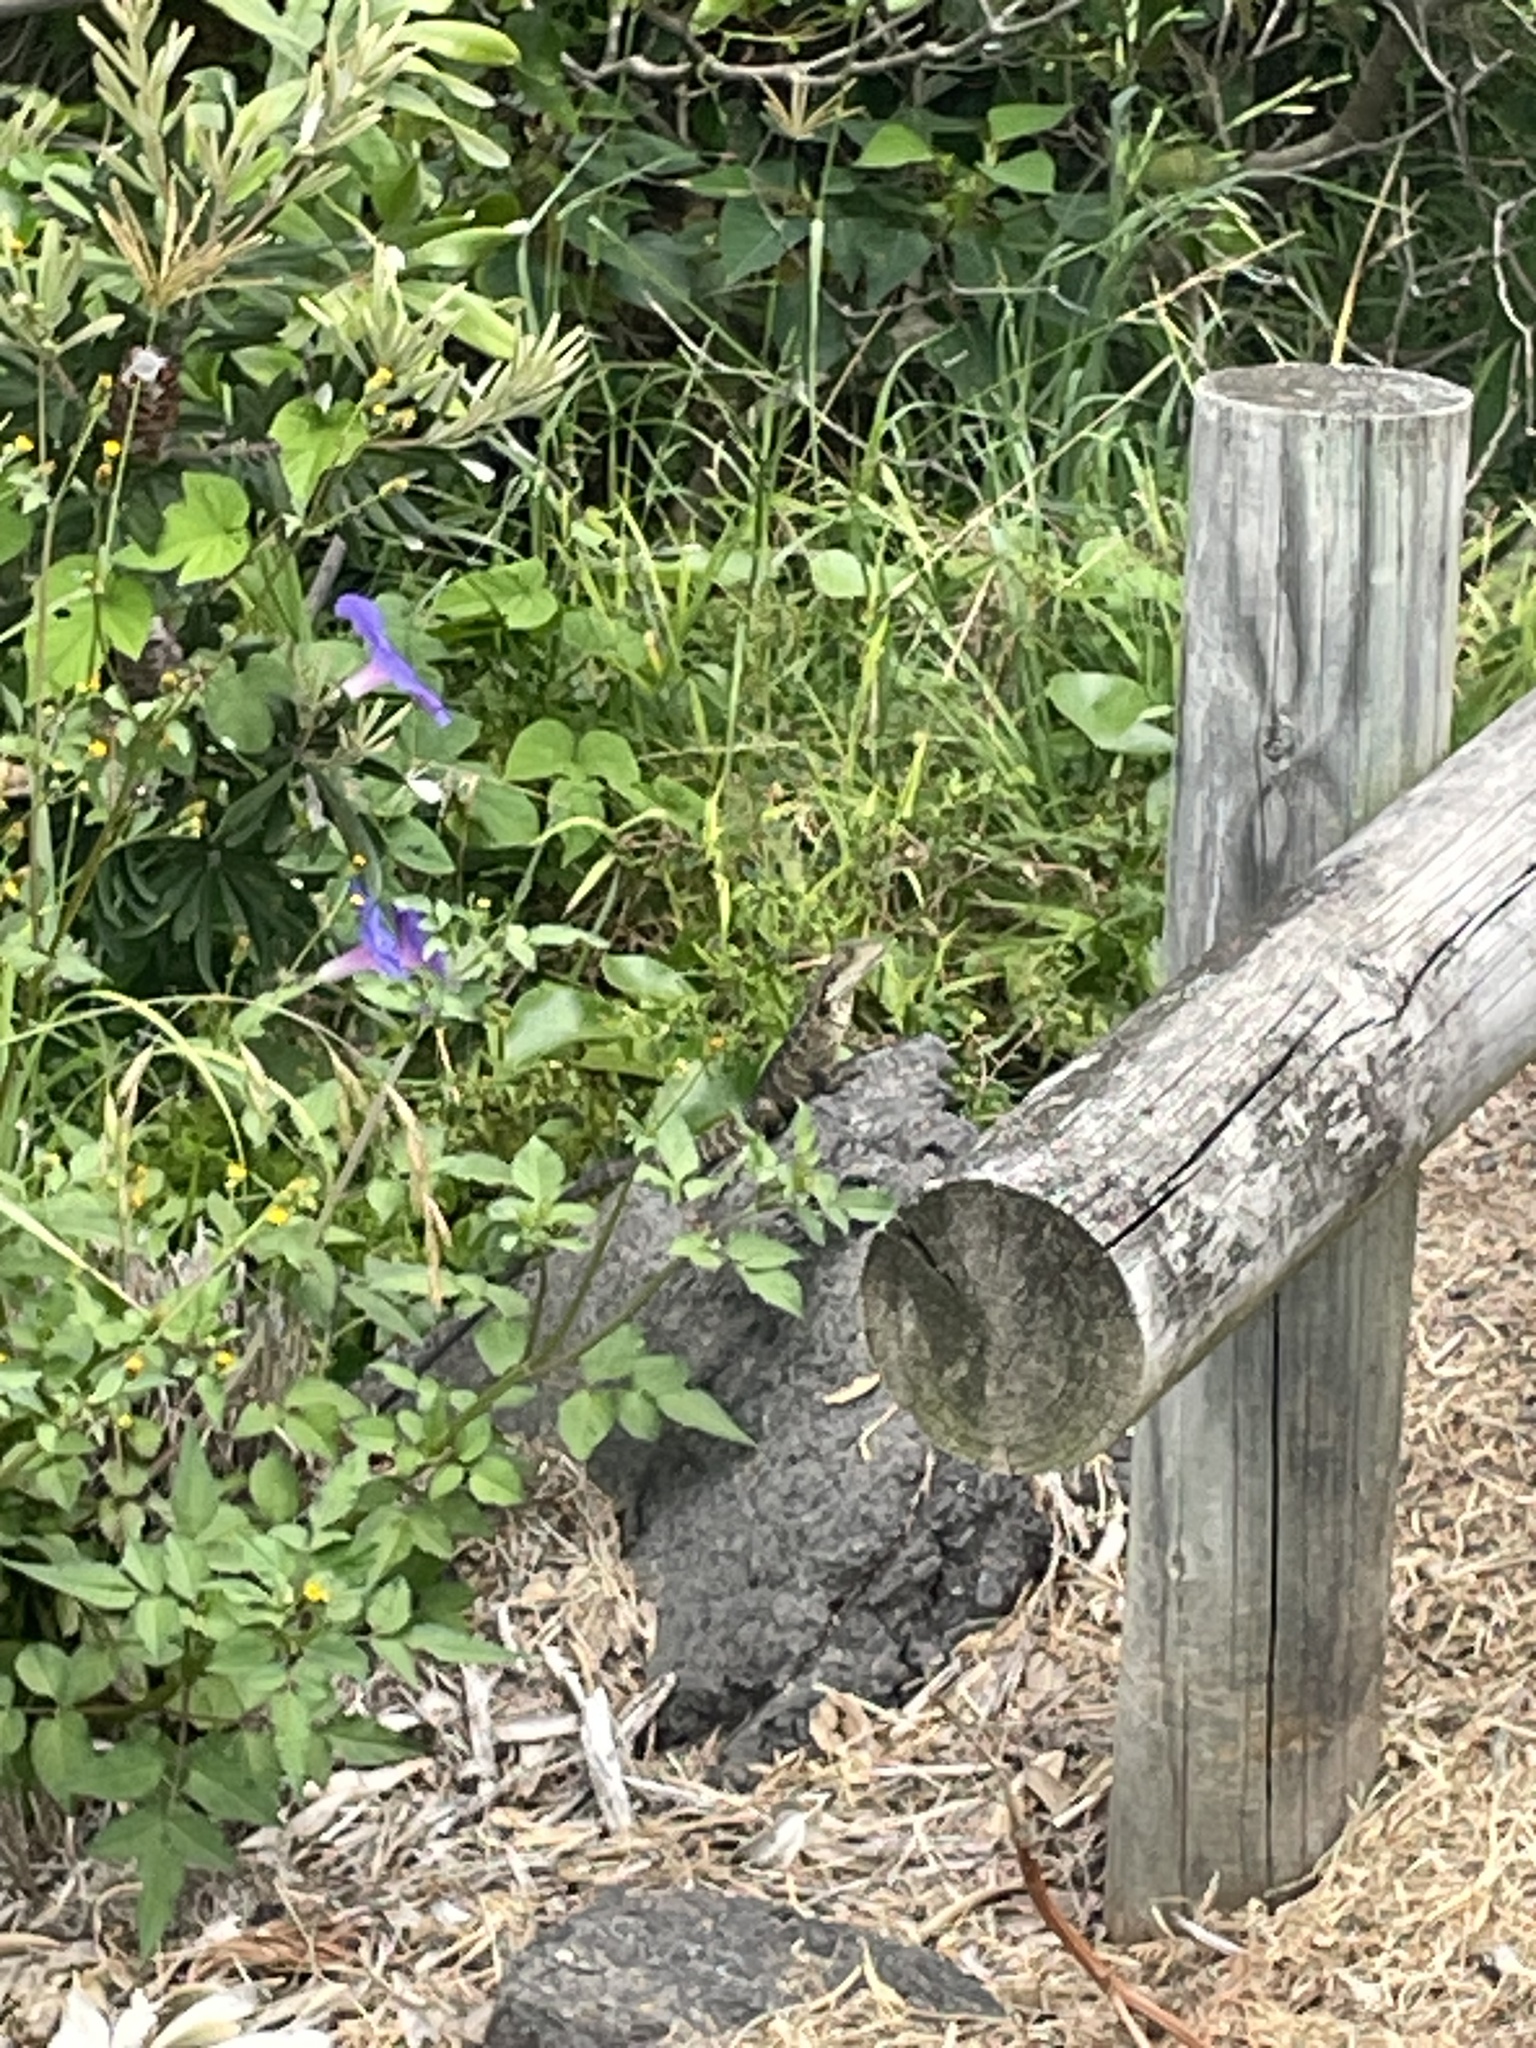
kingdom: Animalia
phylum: Chordata
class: Squamata
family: Agamidae
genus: Intellagama
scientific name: Intellagama lesueurii
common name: Eastern water dragon
